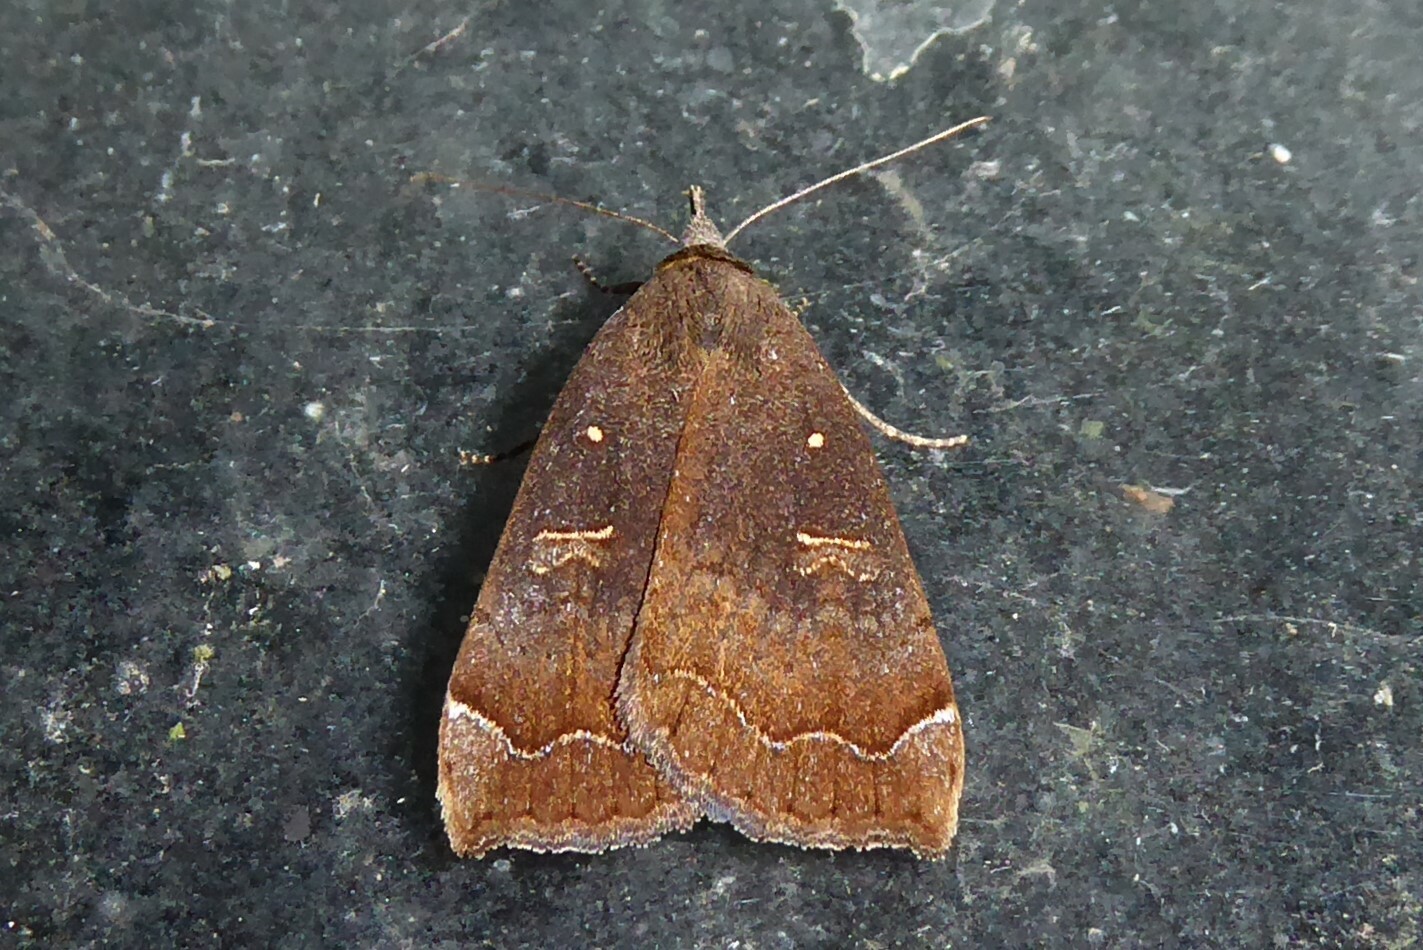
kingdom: Animalia
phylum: Arthropoda
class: Insecta
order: Lepidoptera
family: Erebidae
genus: Rhapsa
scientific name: Rhapsa scotosialis
